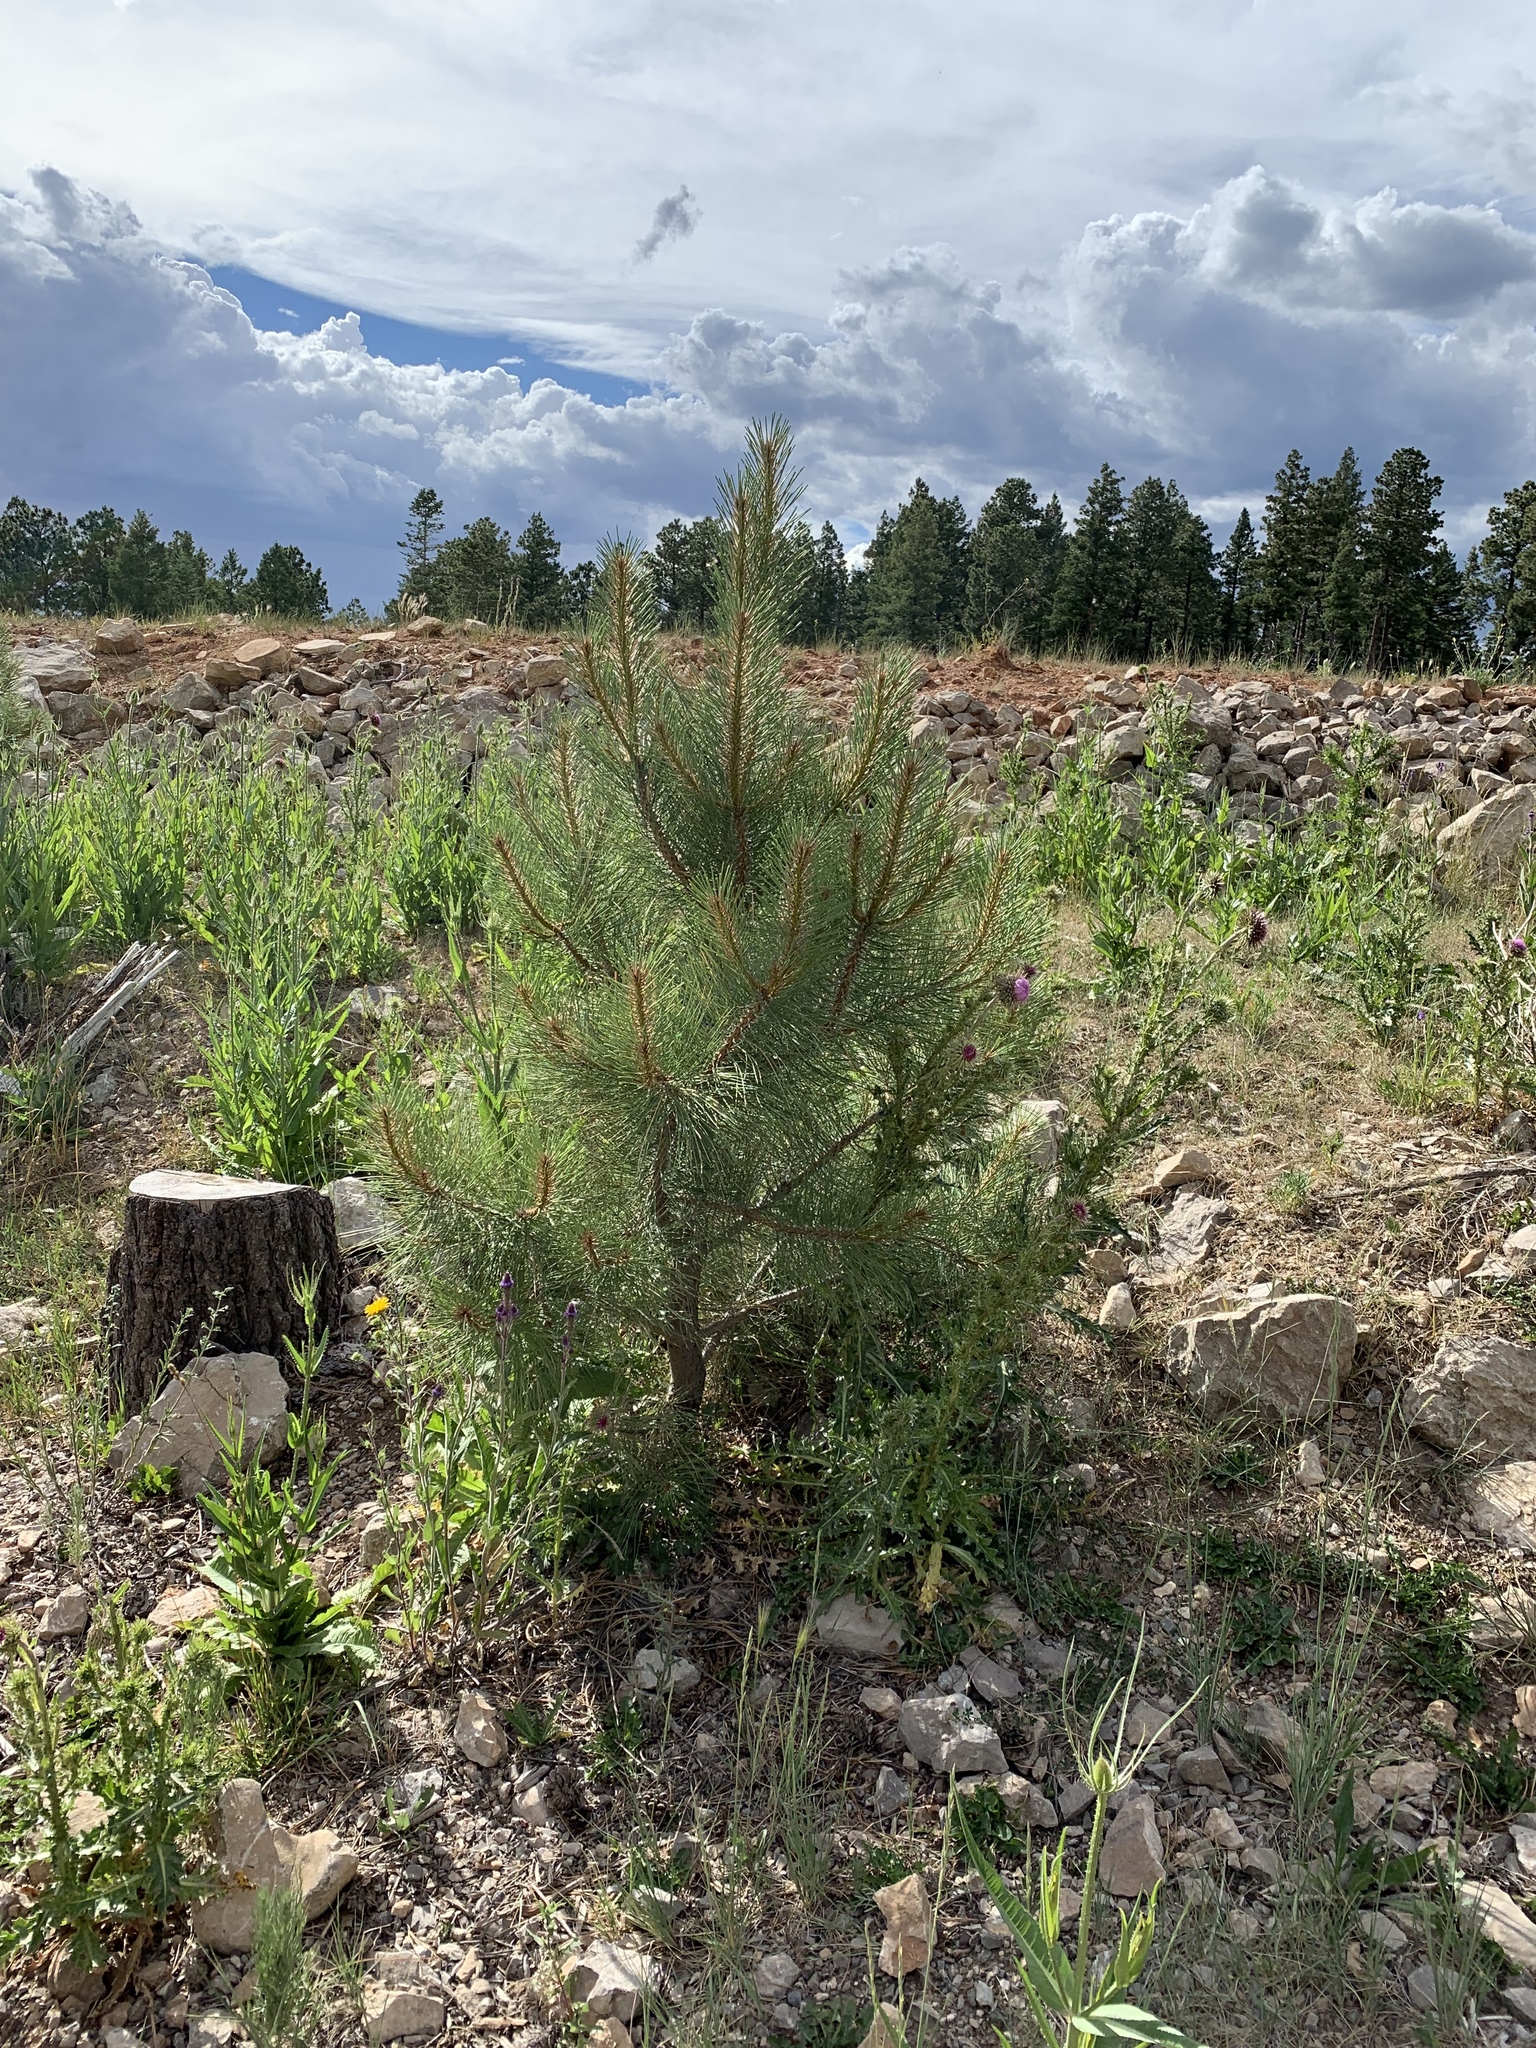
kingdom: Plantae
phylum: Tracheophyta
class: Pinopsida
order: Pinales
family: Pinaceae
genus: Pinus
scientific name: Pinus ponderosa
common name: Western yellow-pine
